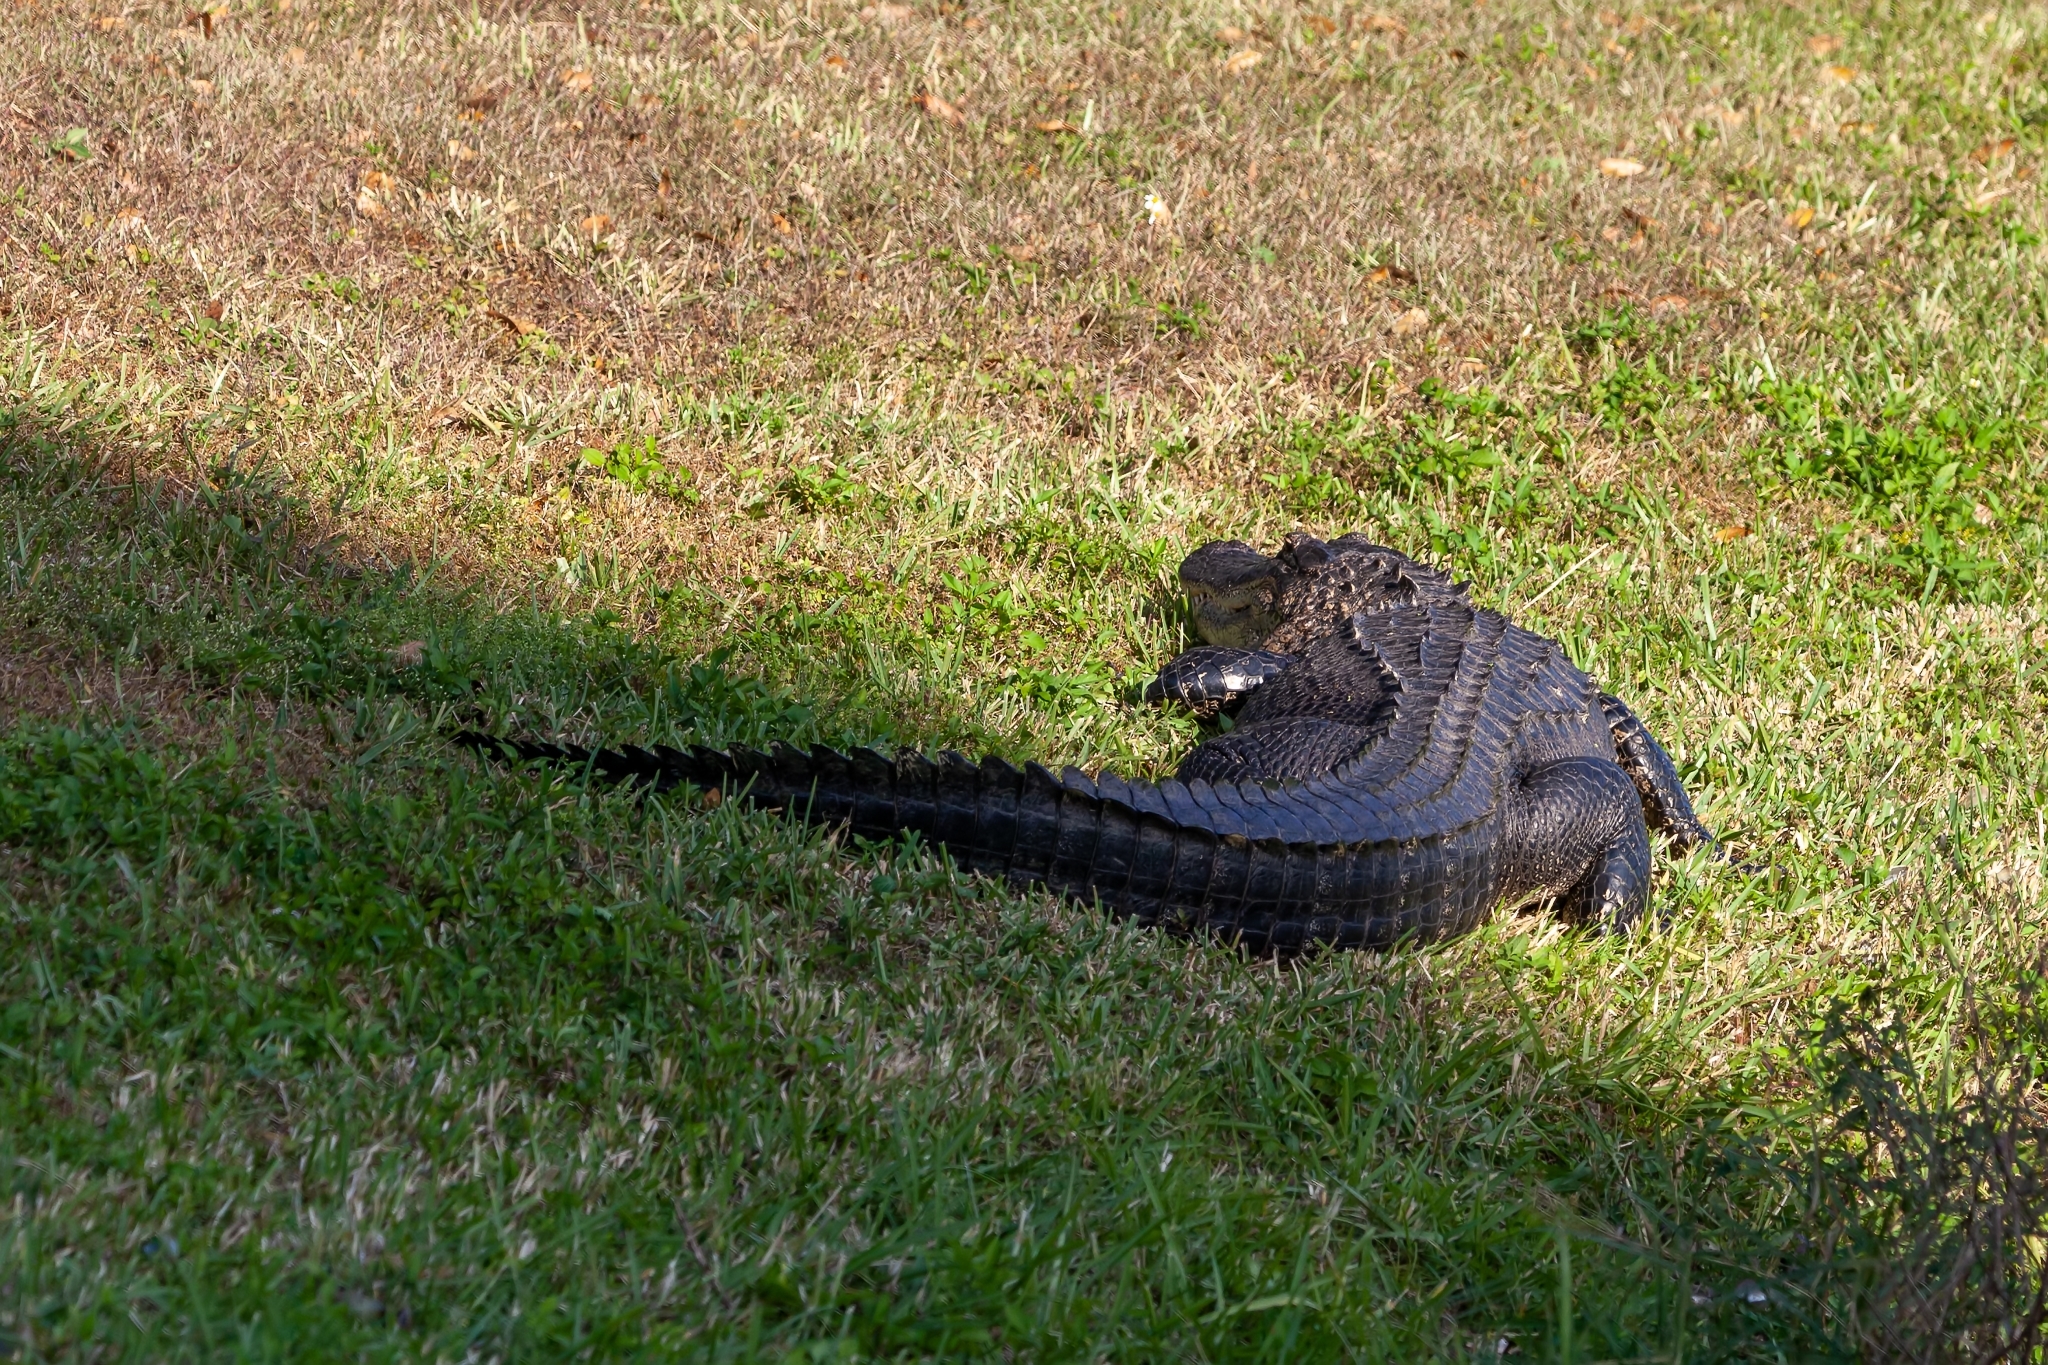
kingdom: Animalia
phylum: Chordata
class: Crocodylia
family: Alligatoridae
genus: Alligator
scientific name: Alligator mississippiensis
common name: American alligator
